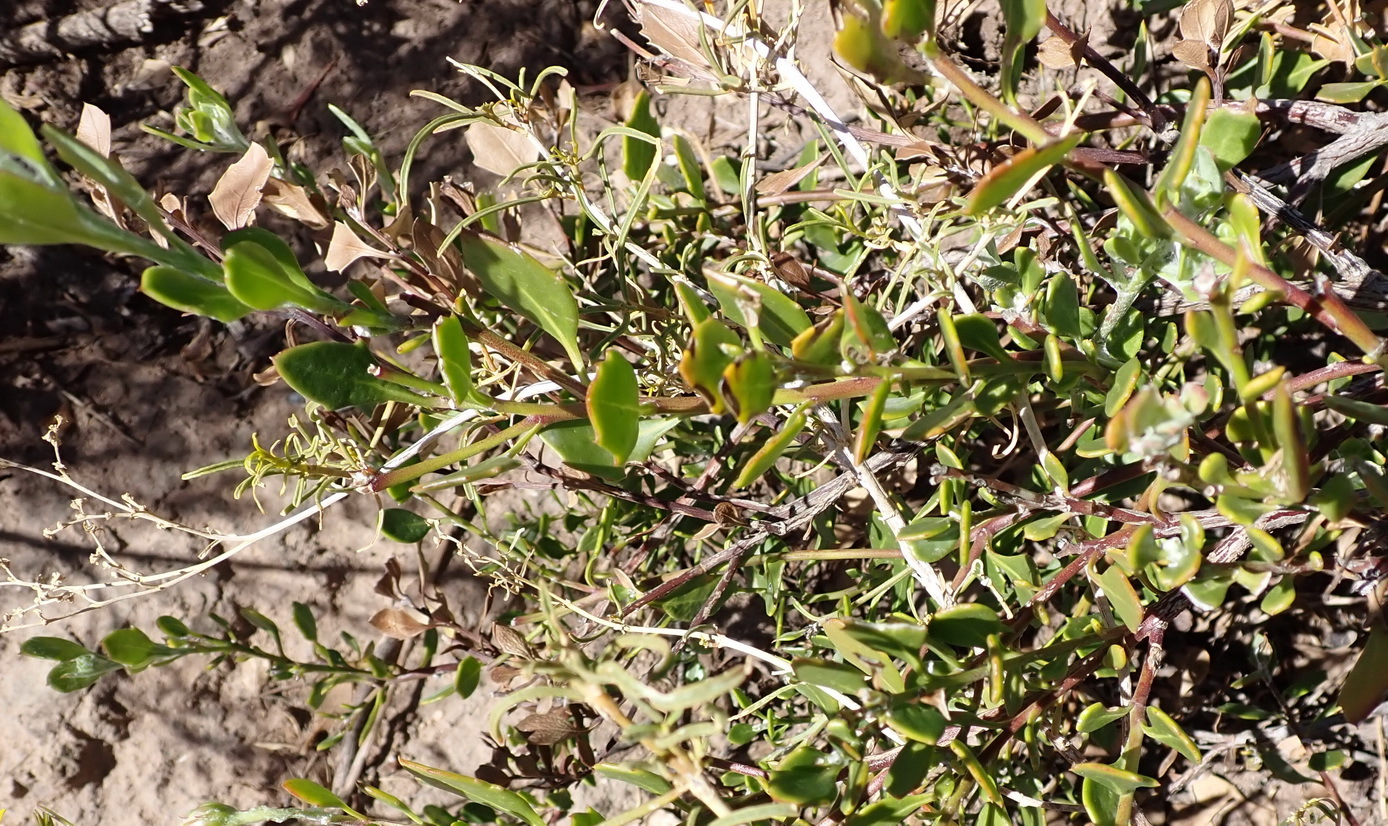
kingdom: Plantae
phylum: Tracheophyta
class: Magnoliopsida
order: Asterales
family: Asteraceae
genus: Osteospermum
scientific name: Osteospermum moniliferum
